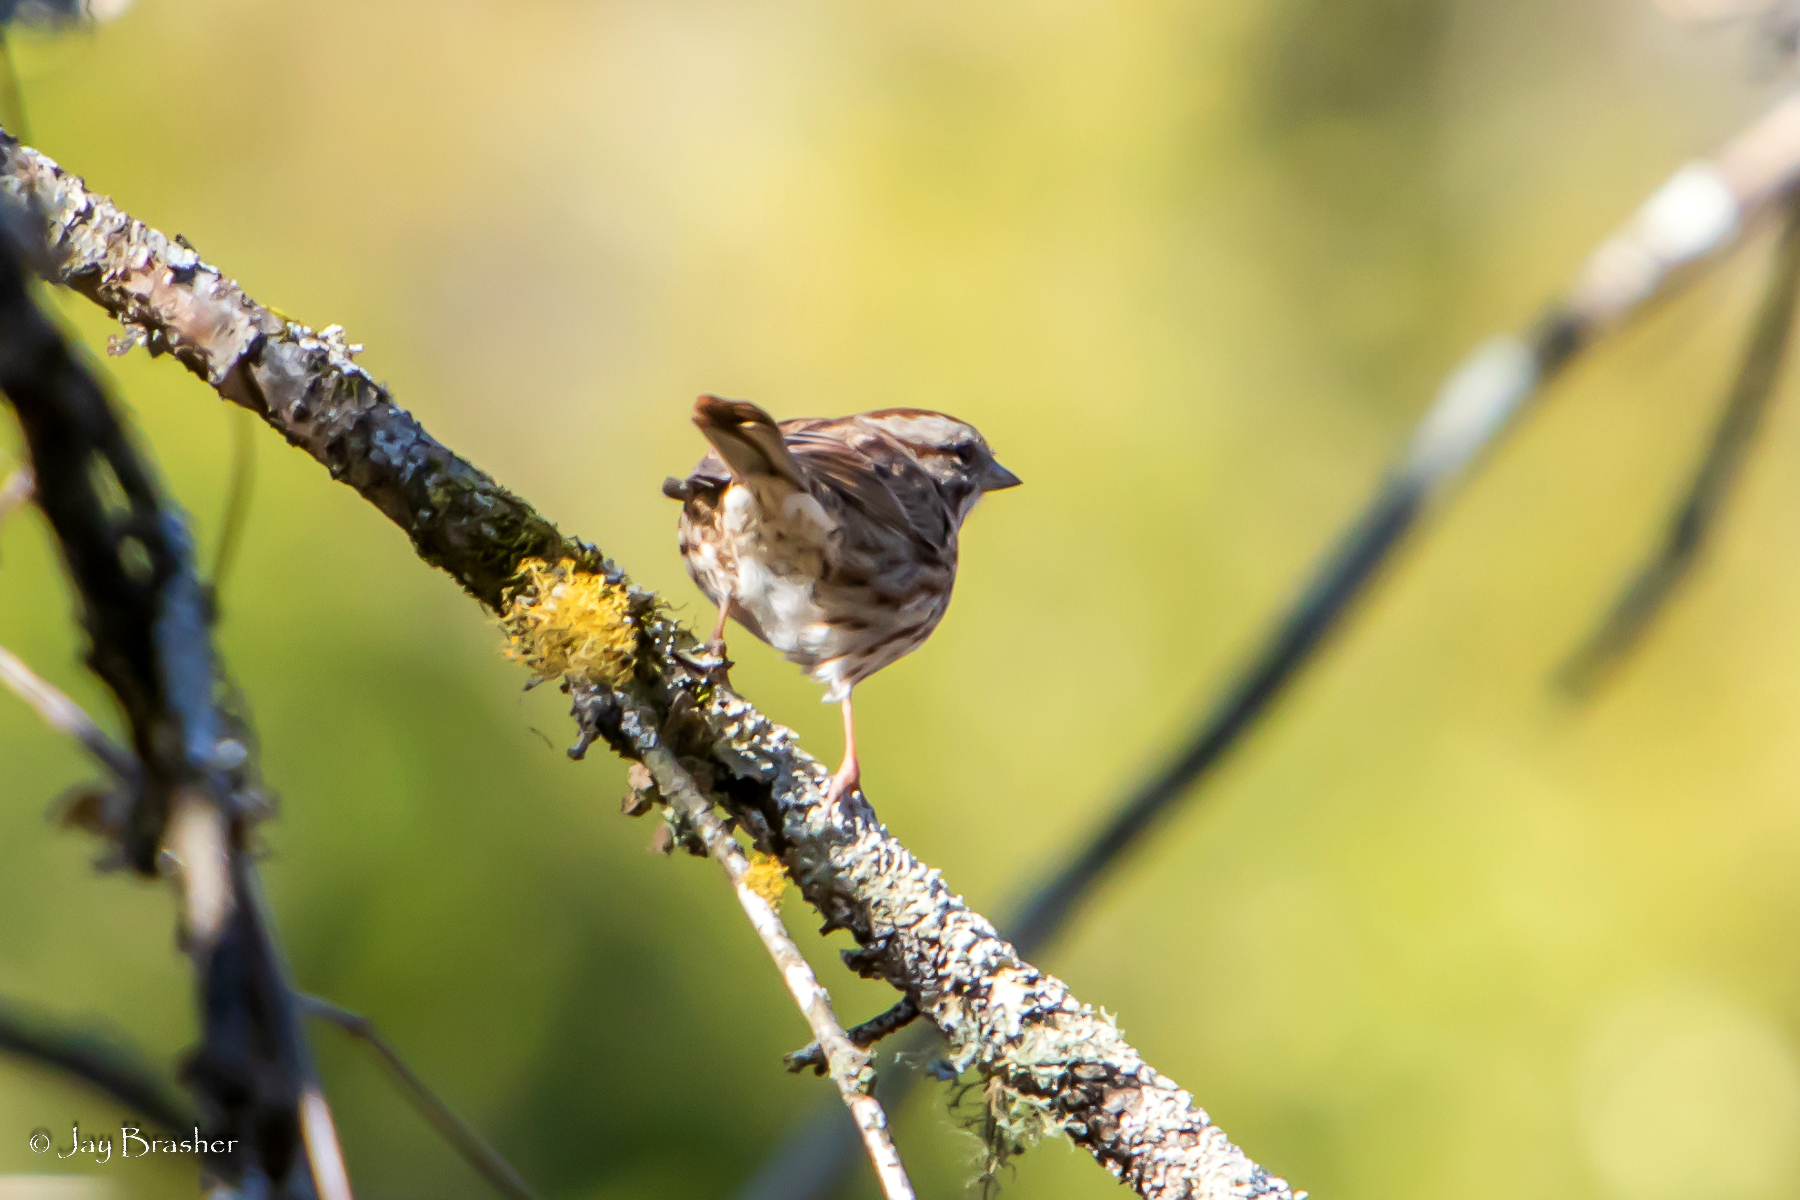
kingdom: Animalia
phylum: Chordata
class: Aves
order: Passeriformes
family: Passerellidae
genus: Melospiza
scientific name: Melospiza melodia
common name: Song sparrow
